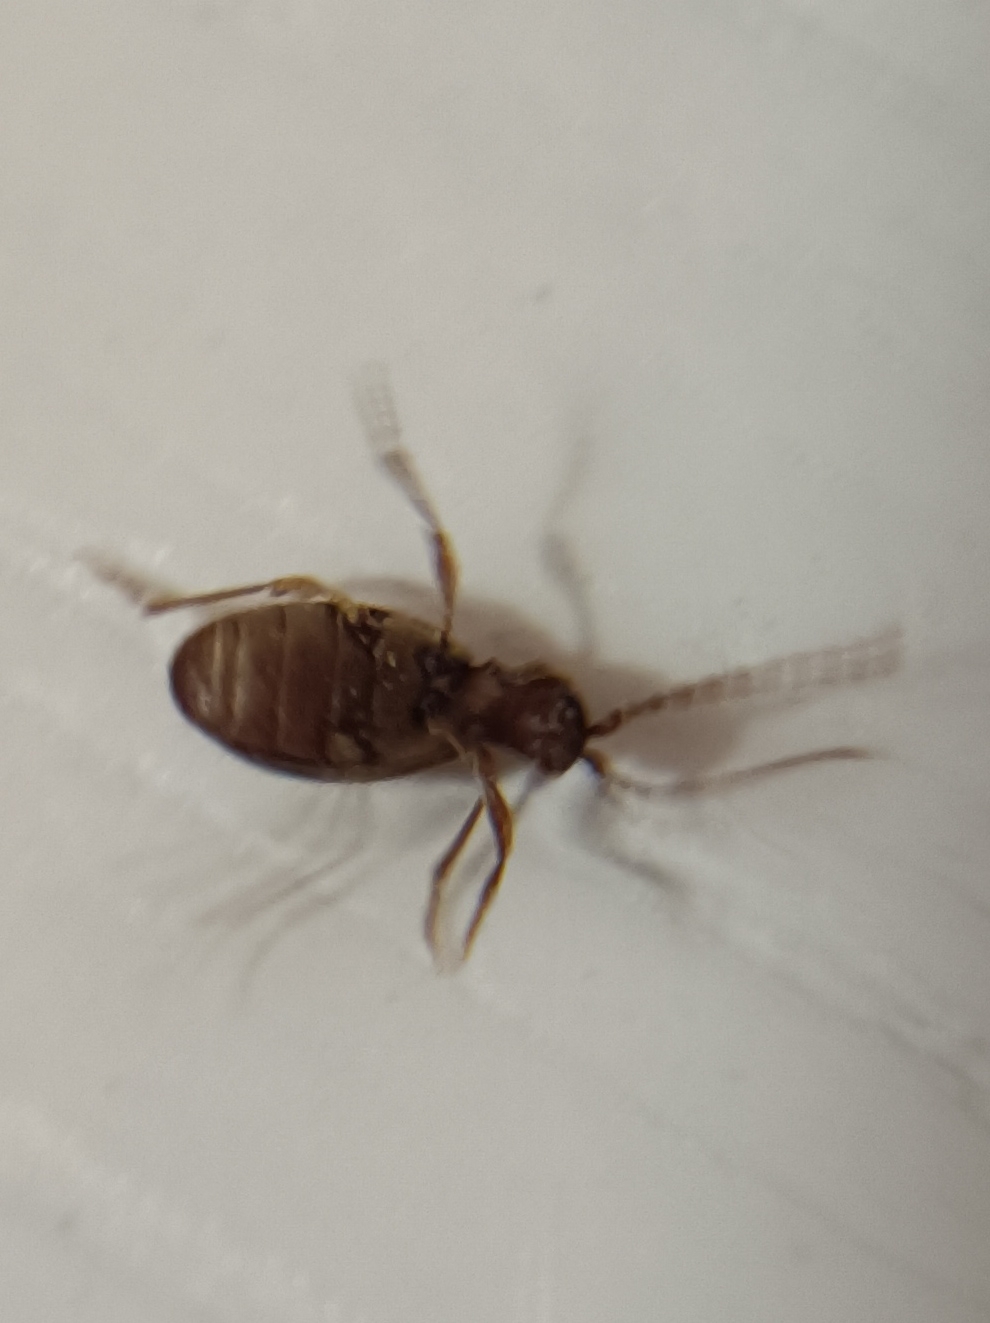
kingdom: Animalia
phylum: Arthropoda
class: Insecta
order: Coleoptera
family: Ptinidae
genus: Ptinus
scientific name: Ptinus villiger
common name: Hairy spider beetle
